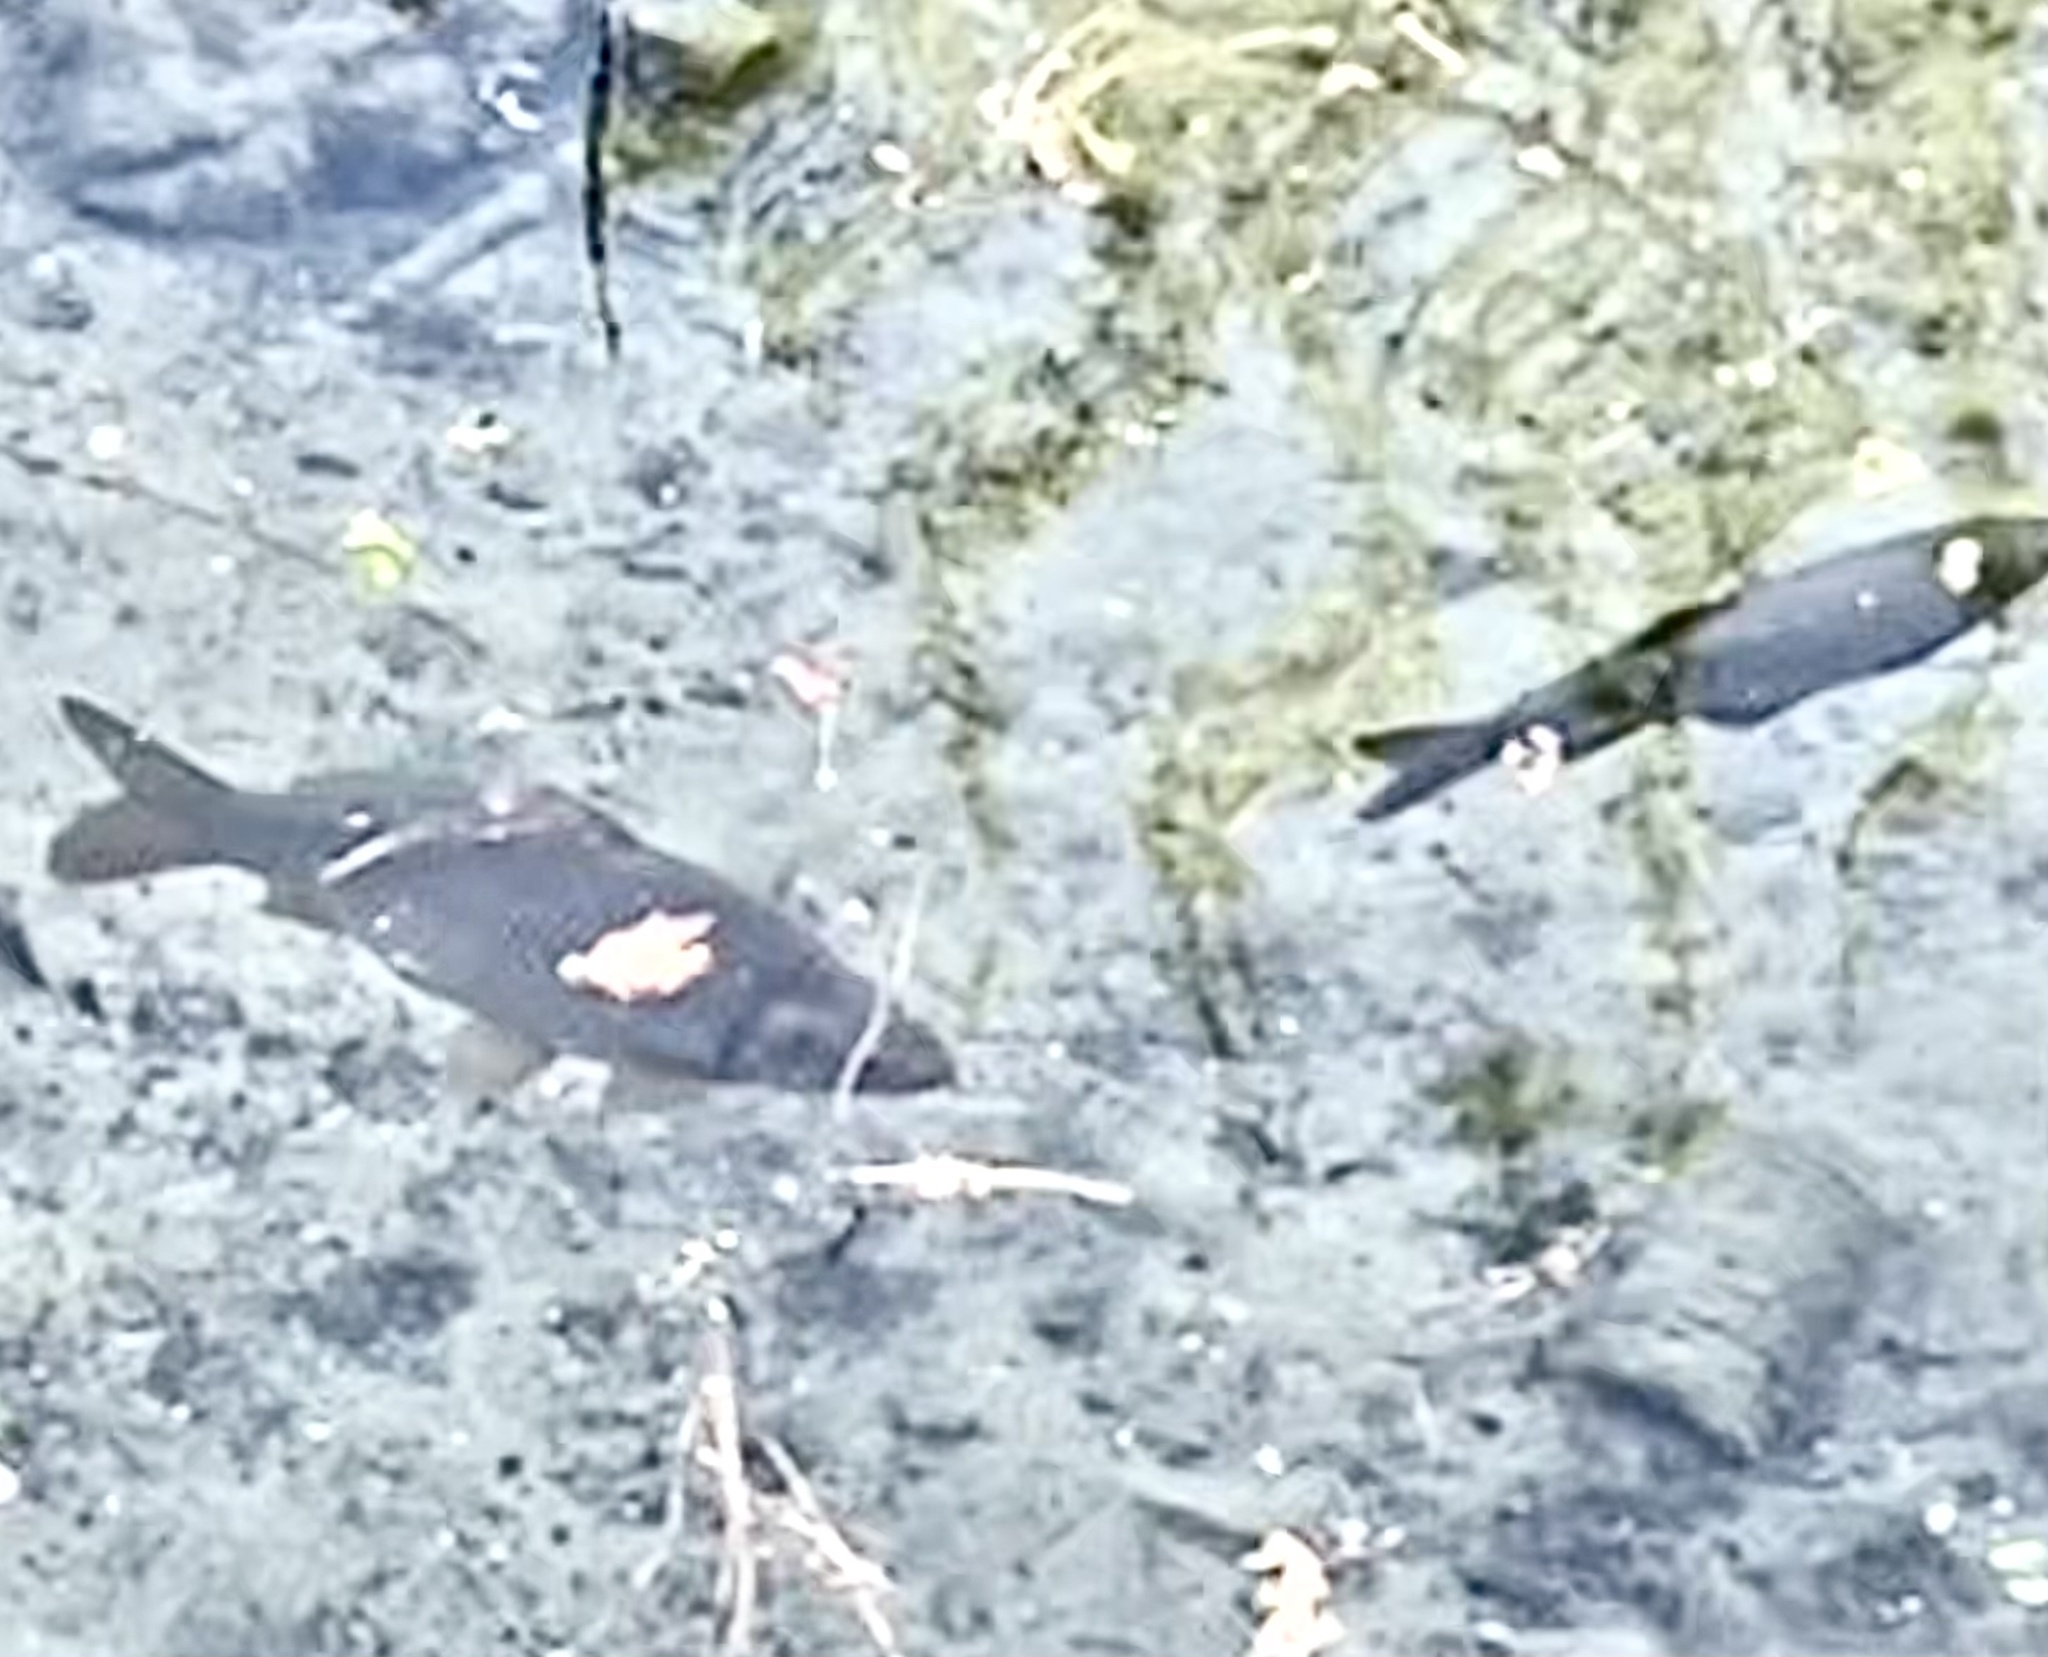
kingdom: Animalia
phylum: Chordata
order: Cypriniformes
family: Cyprinidae
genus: Cyprinus
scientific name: Cyprinus carpio
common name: Common carp
